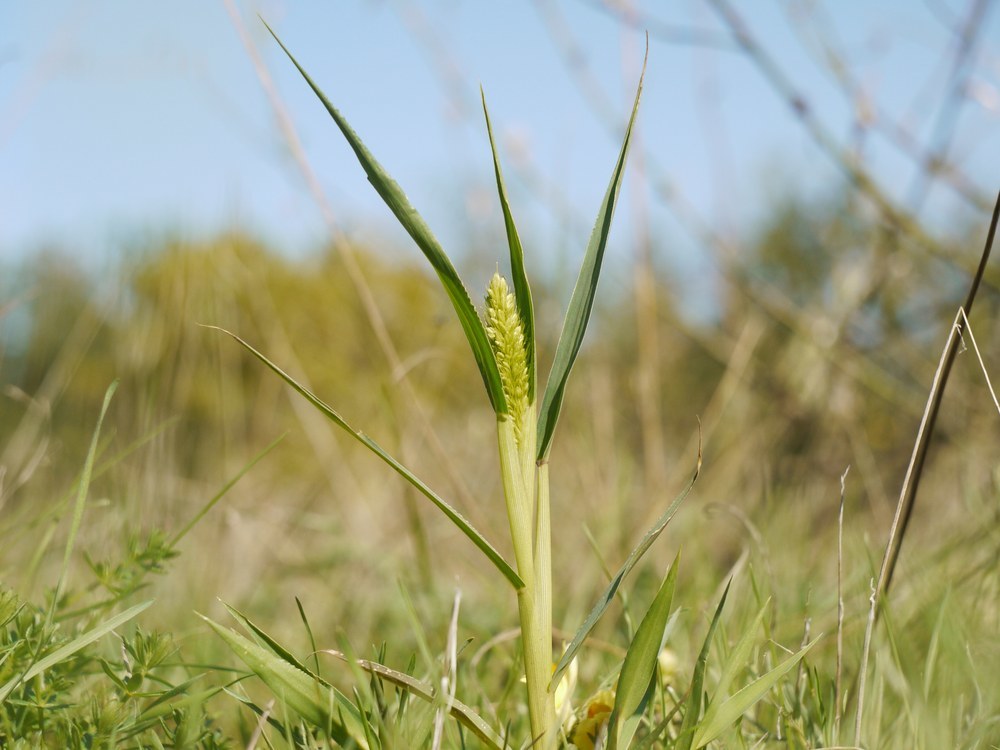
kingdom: Plantae
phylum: Tracheophyta
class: Liliopsida
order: Poales
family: Poaceae
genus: Setaria
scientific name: Setaria viridis
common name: Green bristlegrass
